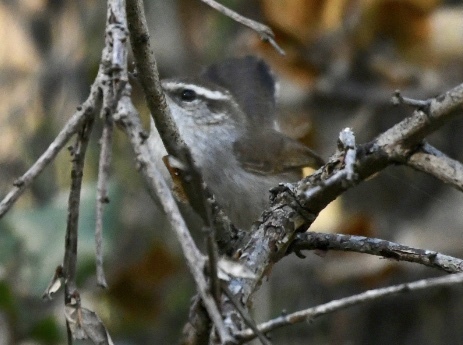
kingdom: Animalia
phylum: Chordata
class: Aves
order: Passeriformes
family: Troglodytidae
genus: Thryomanes
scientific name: Thryomanes bewickii
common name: Bewick's wren
